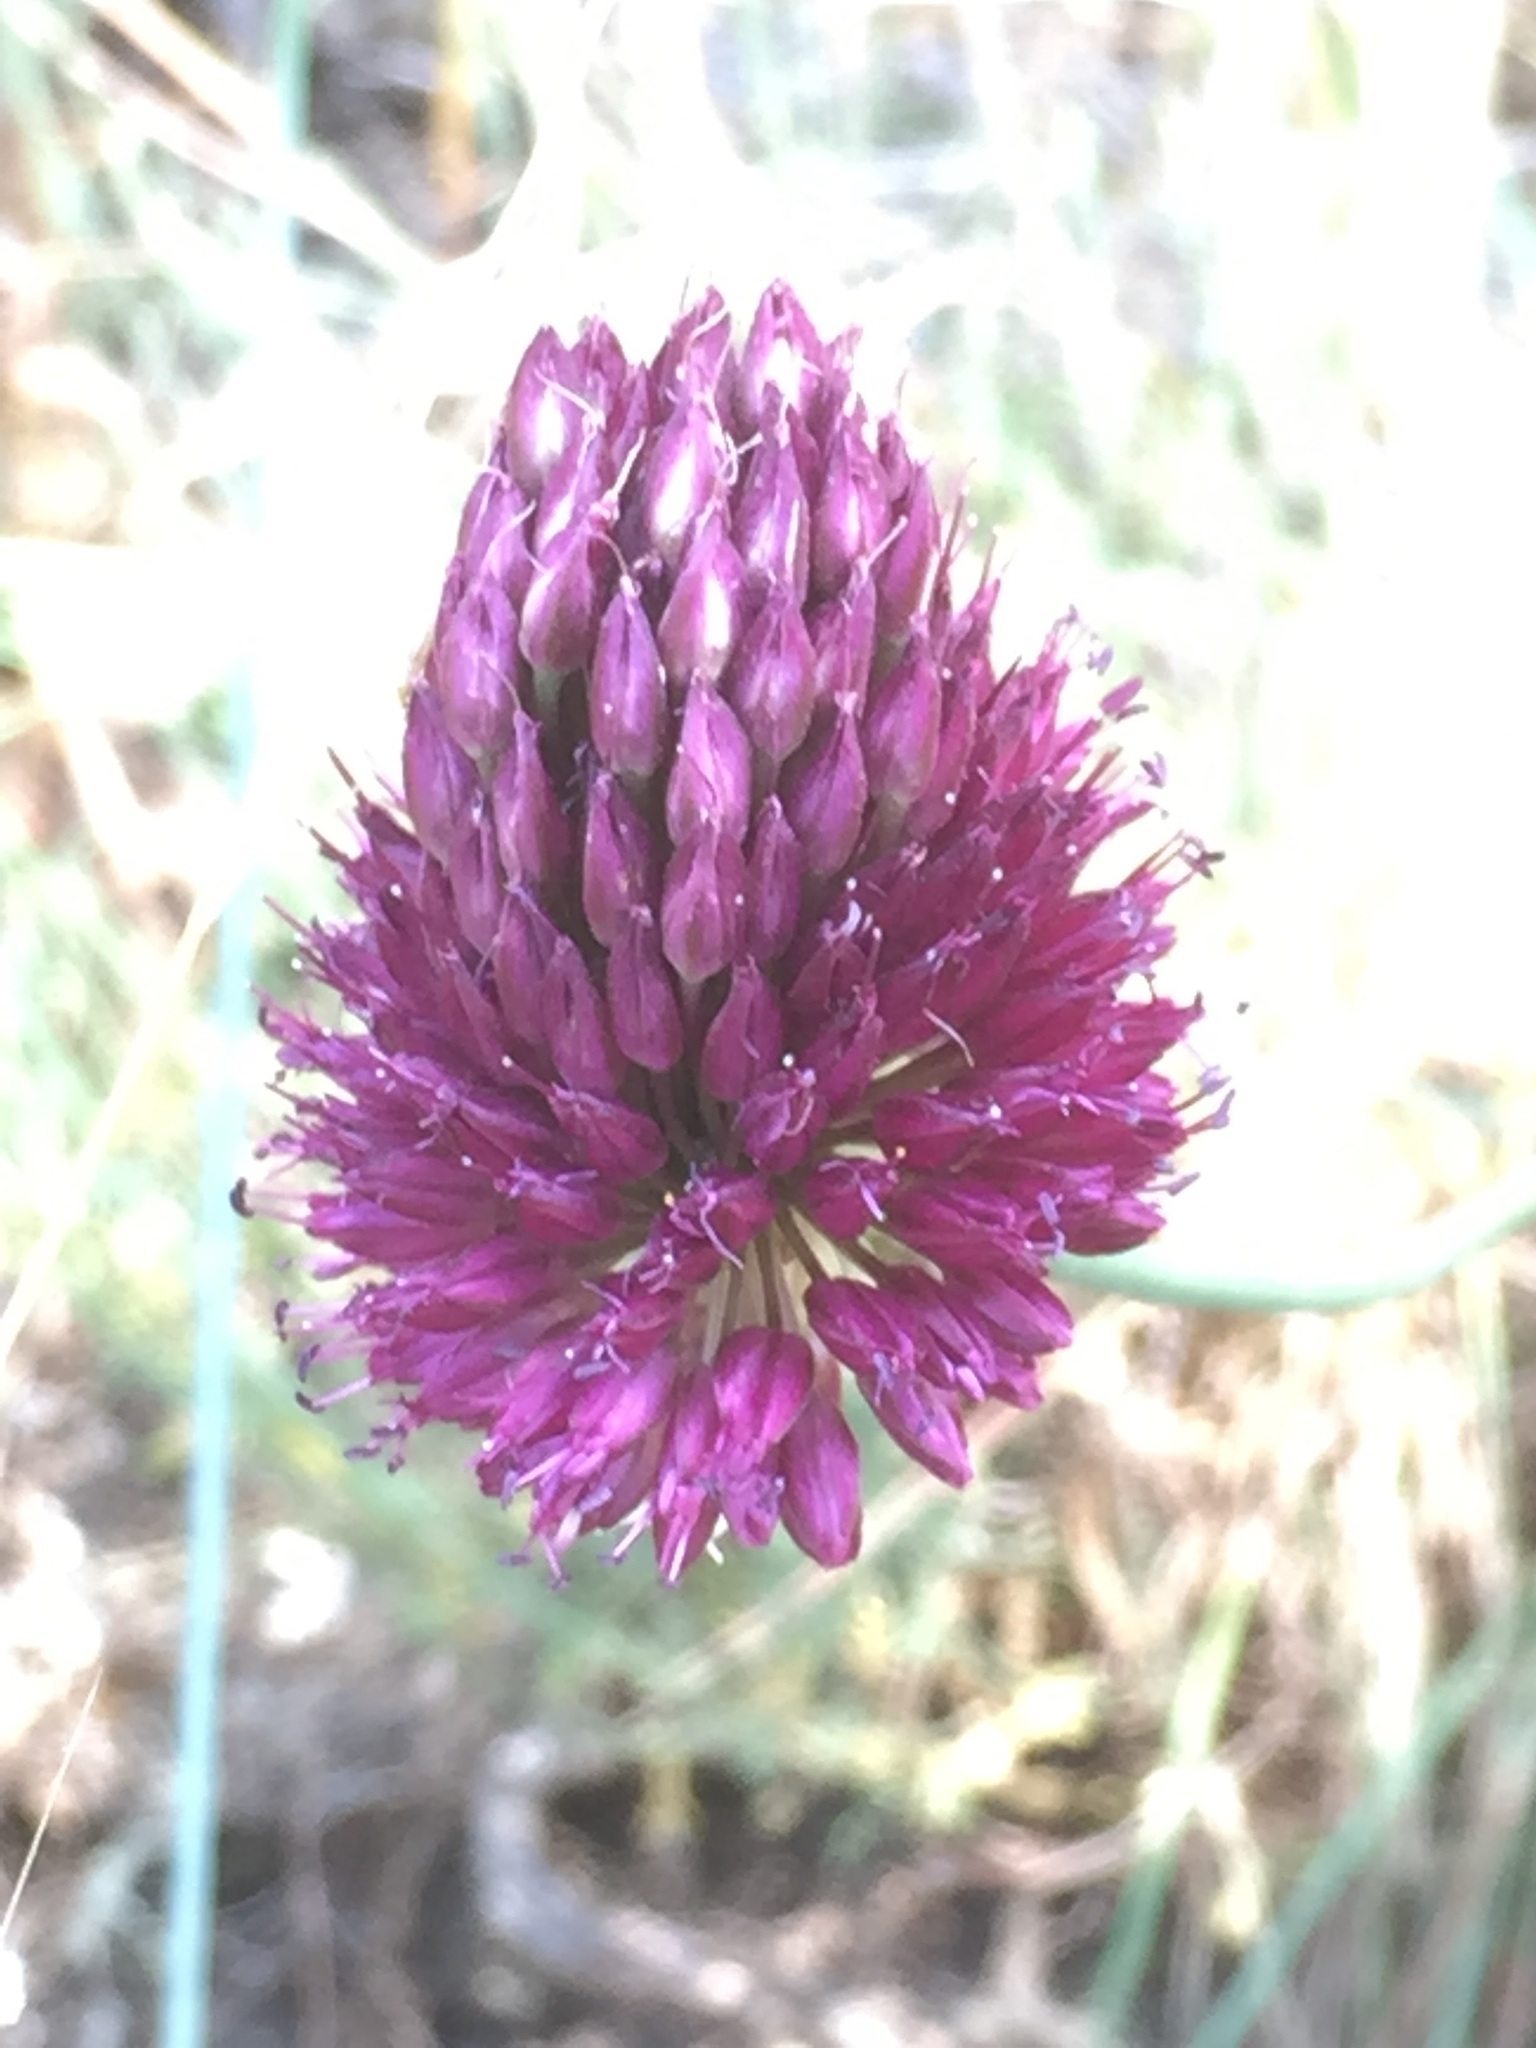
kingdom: Plantae
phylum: Tracheophyta
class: Liliopsida
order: Asparagales
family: Amaryllidaceae
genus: Allium
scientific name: Allium sphaerocephalon
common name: Round-headed leek
